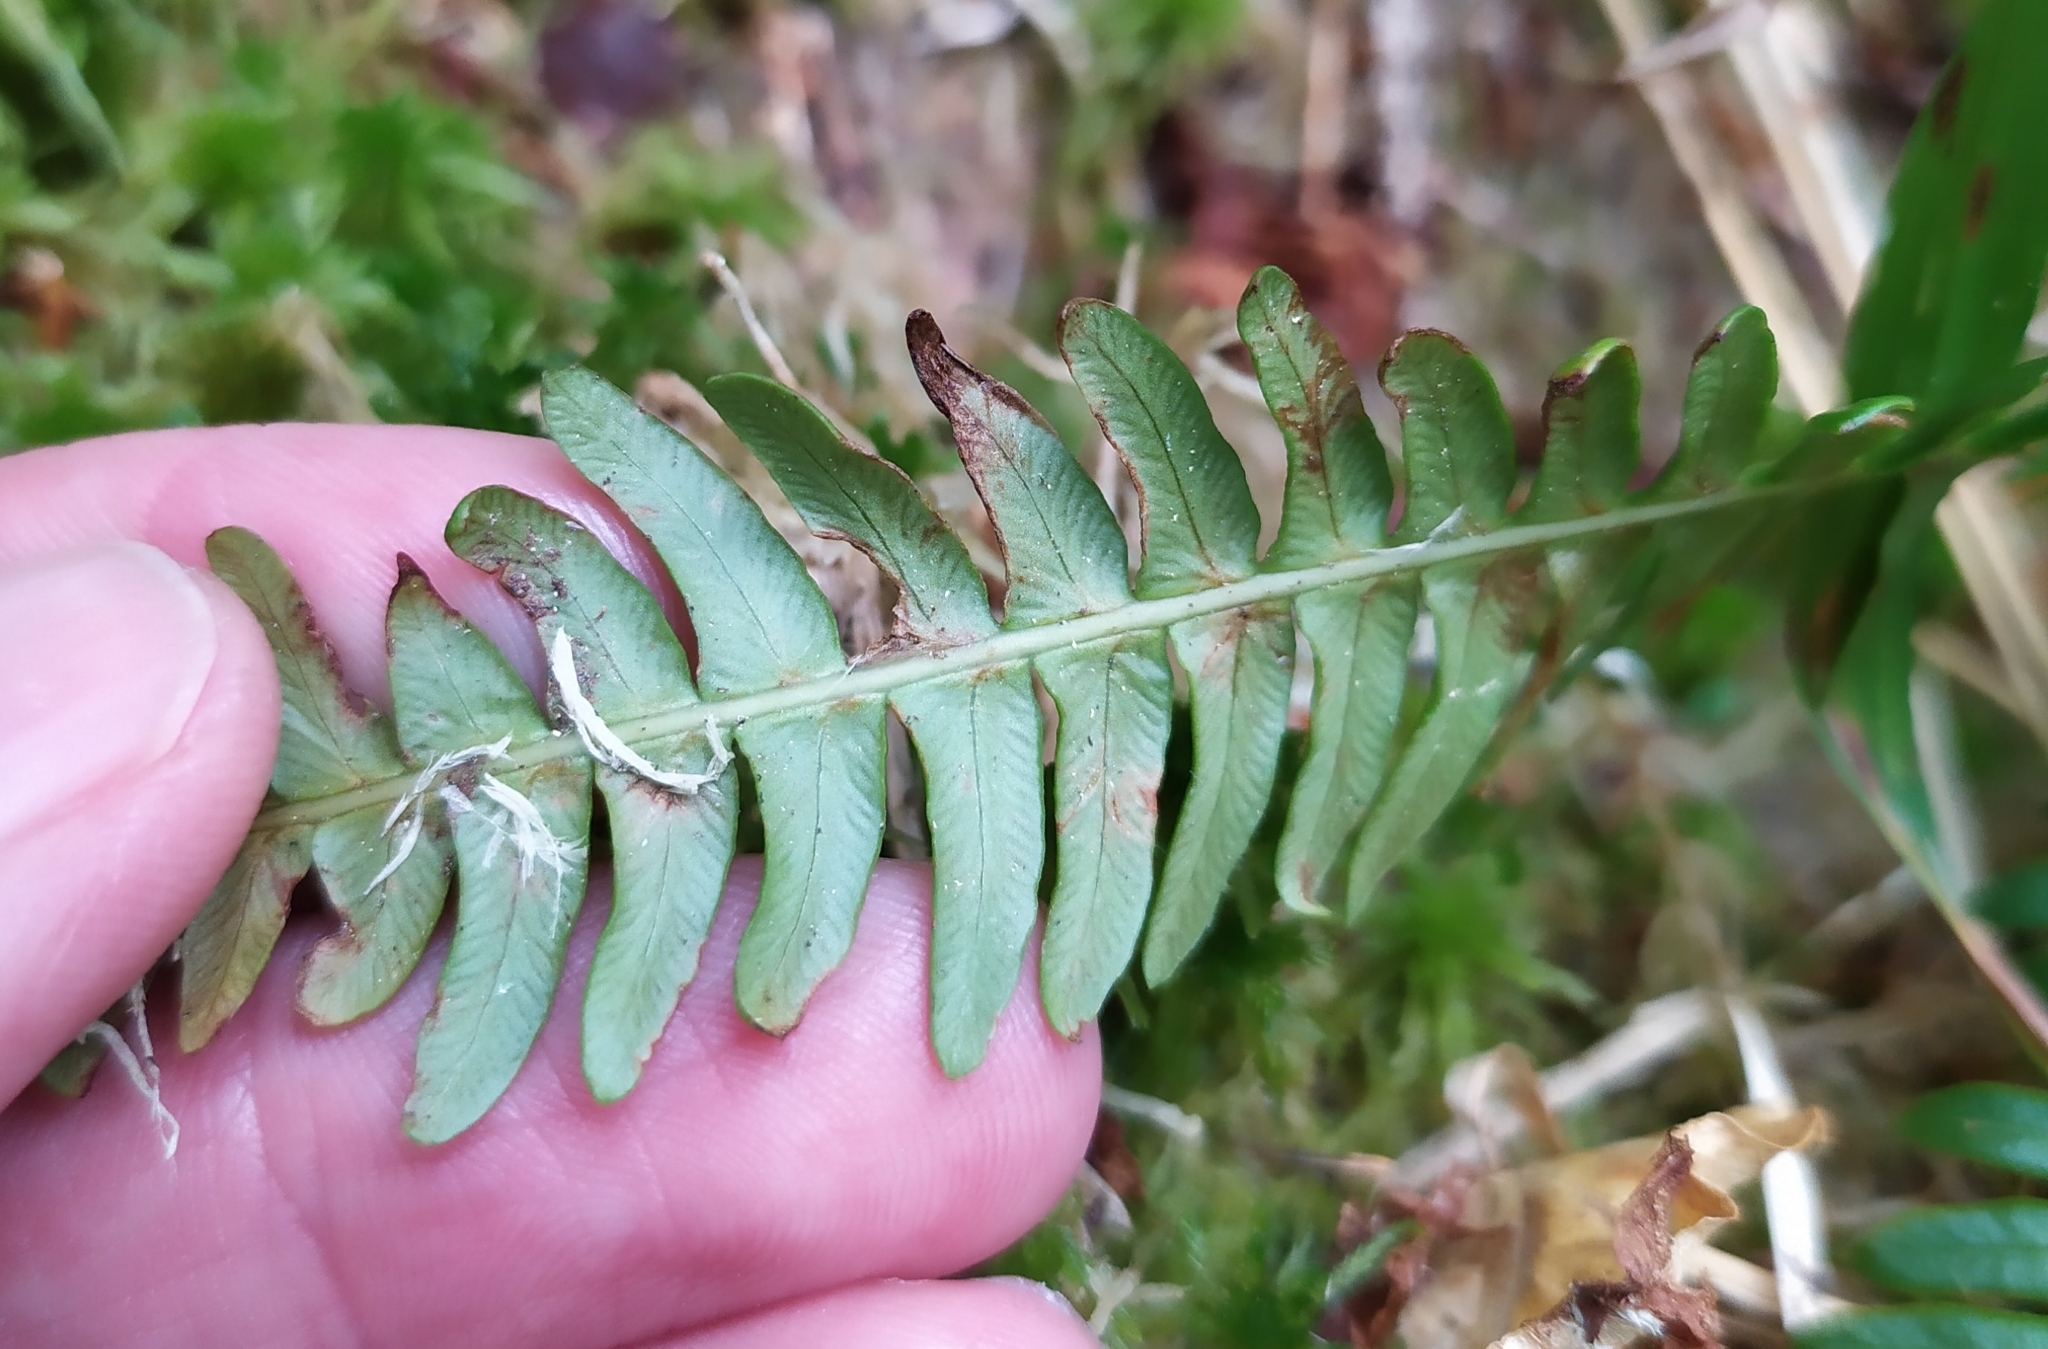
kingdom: Plantae
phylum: Tracheophyta
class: Polypodiopsida
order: Polypodiales
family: Blechnaceae
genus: Struthiopteris
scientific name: Struthiopteris spicant
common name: Deer fern
